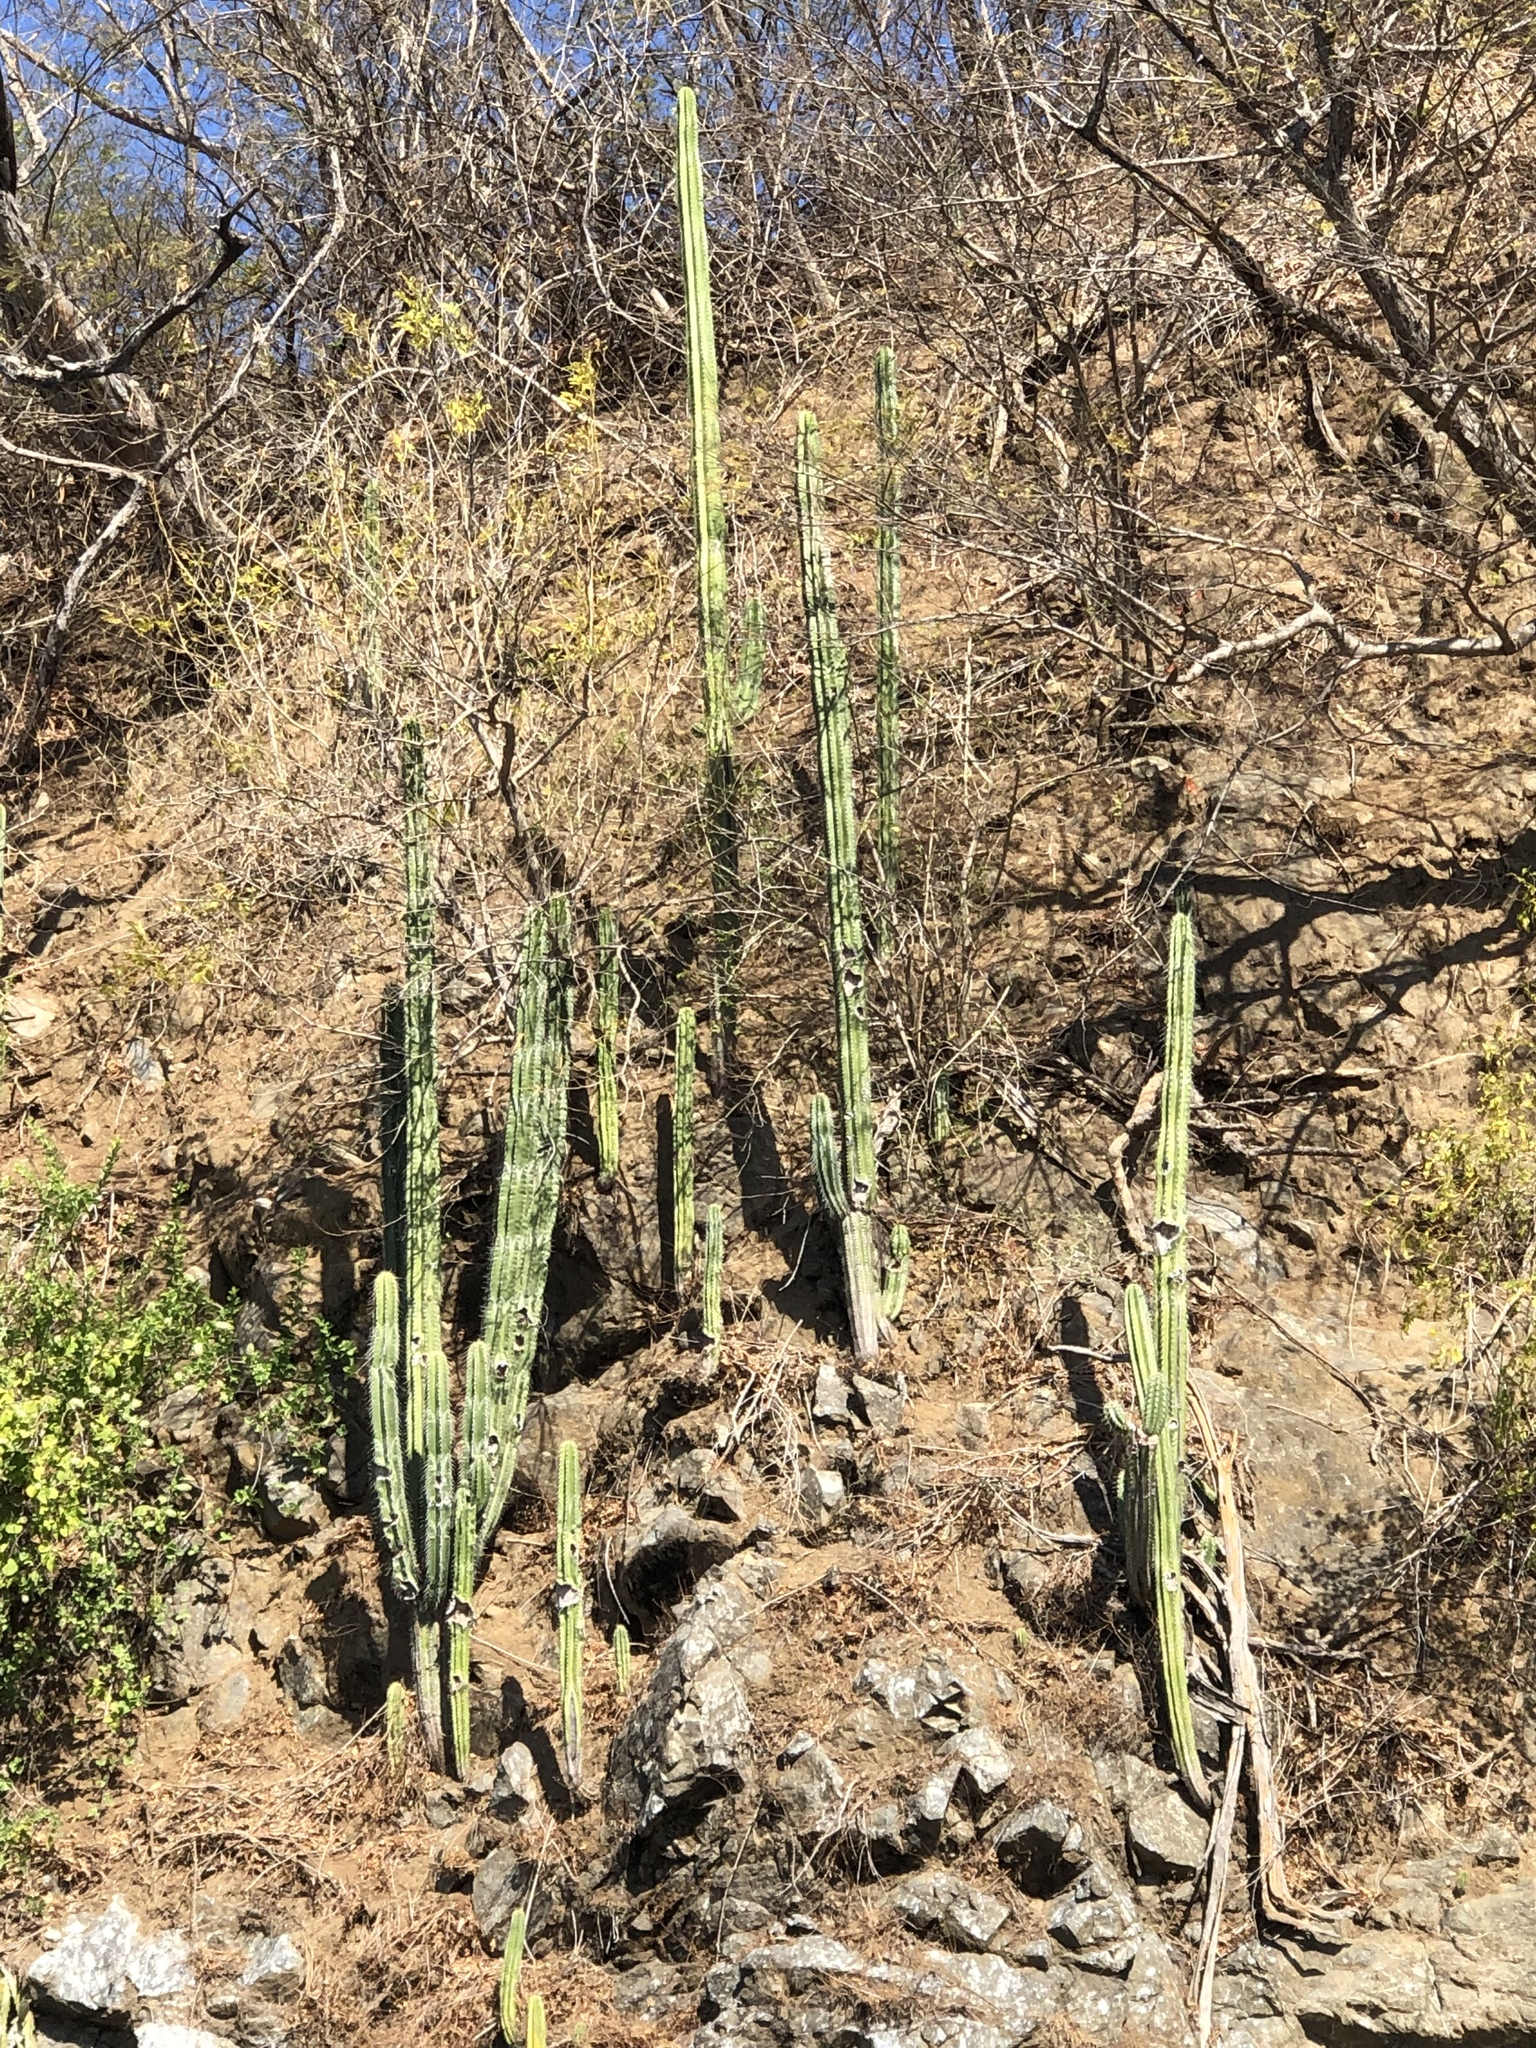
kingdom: Plantae
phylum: Tracheophyta
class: Magnoliopsida
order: Caryophyllales
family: Cactaceae
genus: Stenocereus
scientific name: Stenocereus aragonii
